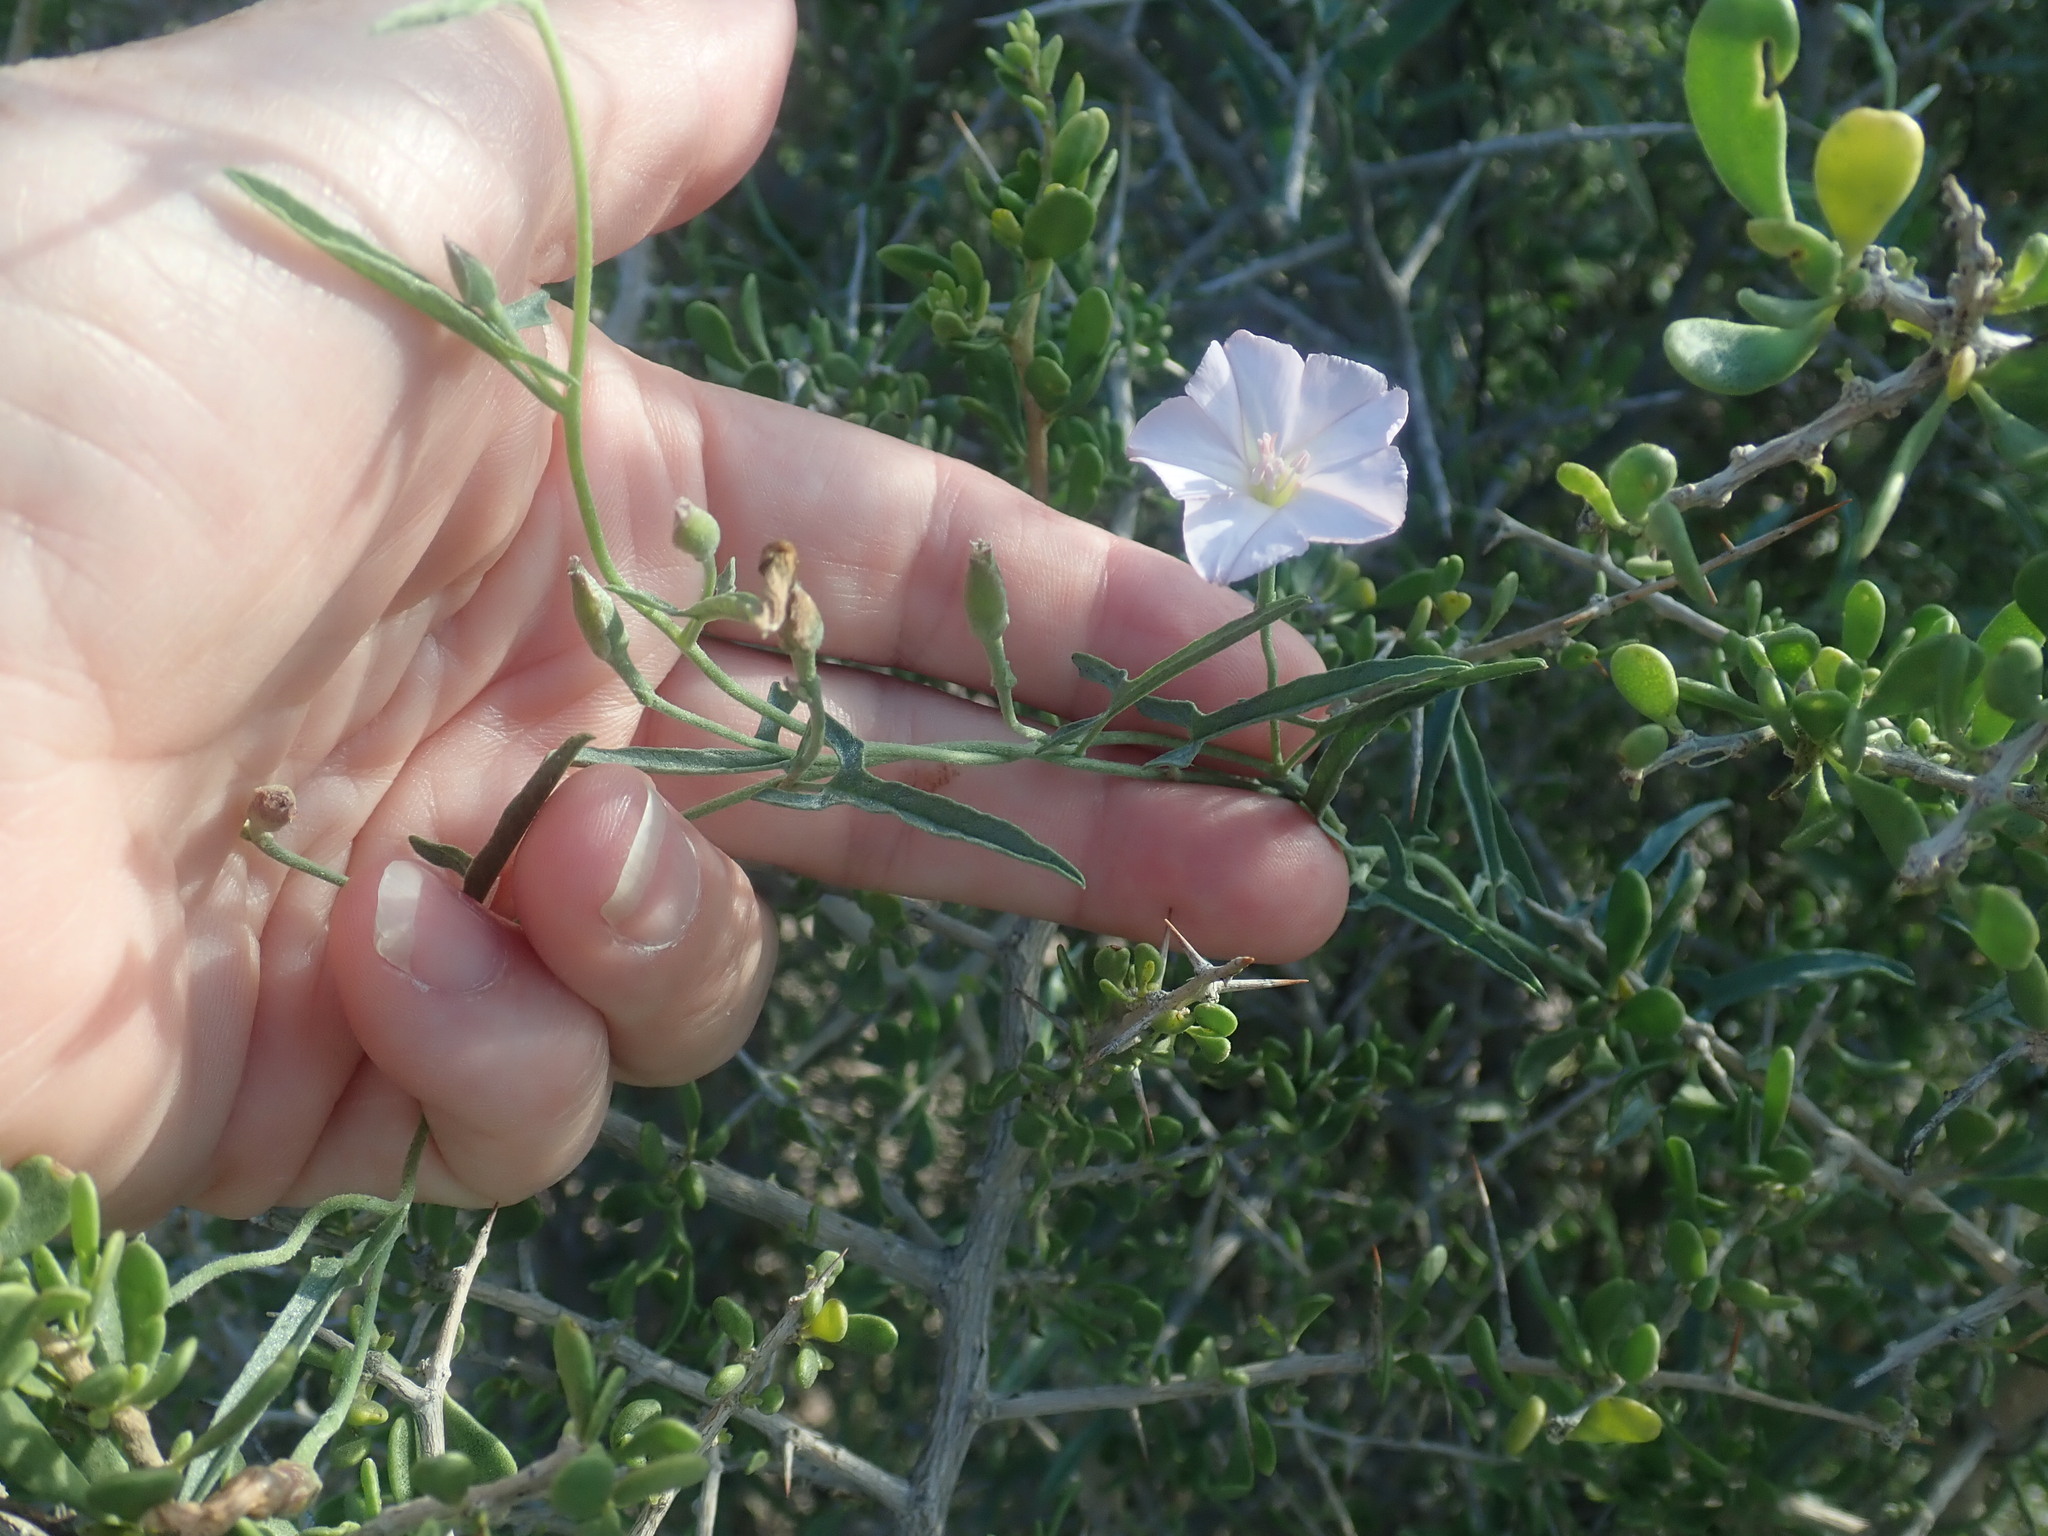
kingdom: Plantae
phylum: Tracheophyta
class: Magnoliopsida
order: Solanales
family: Convolvulaceae
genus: Convolvulus
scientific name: Convolvulus equitans
